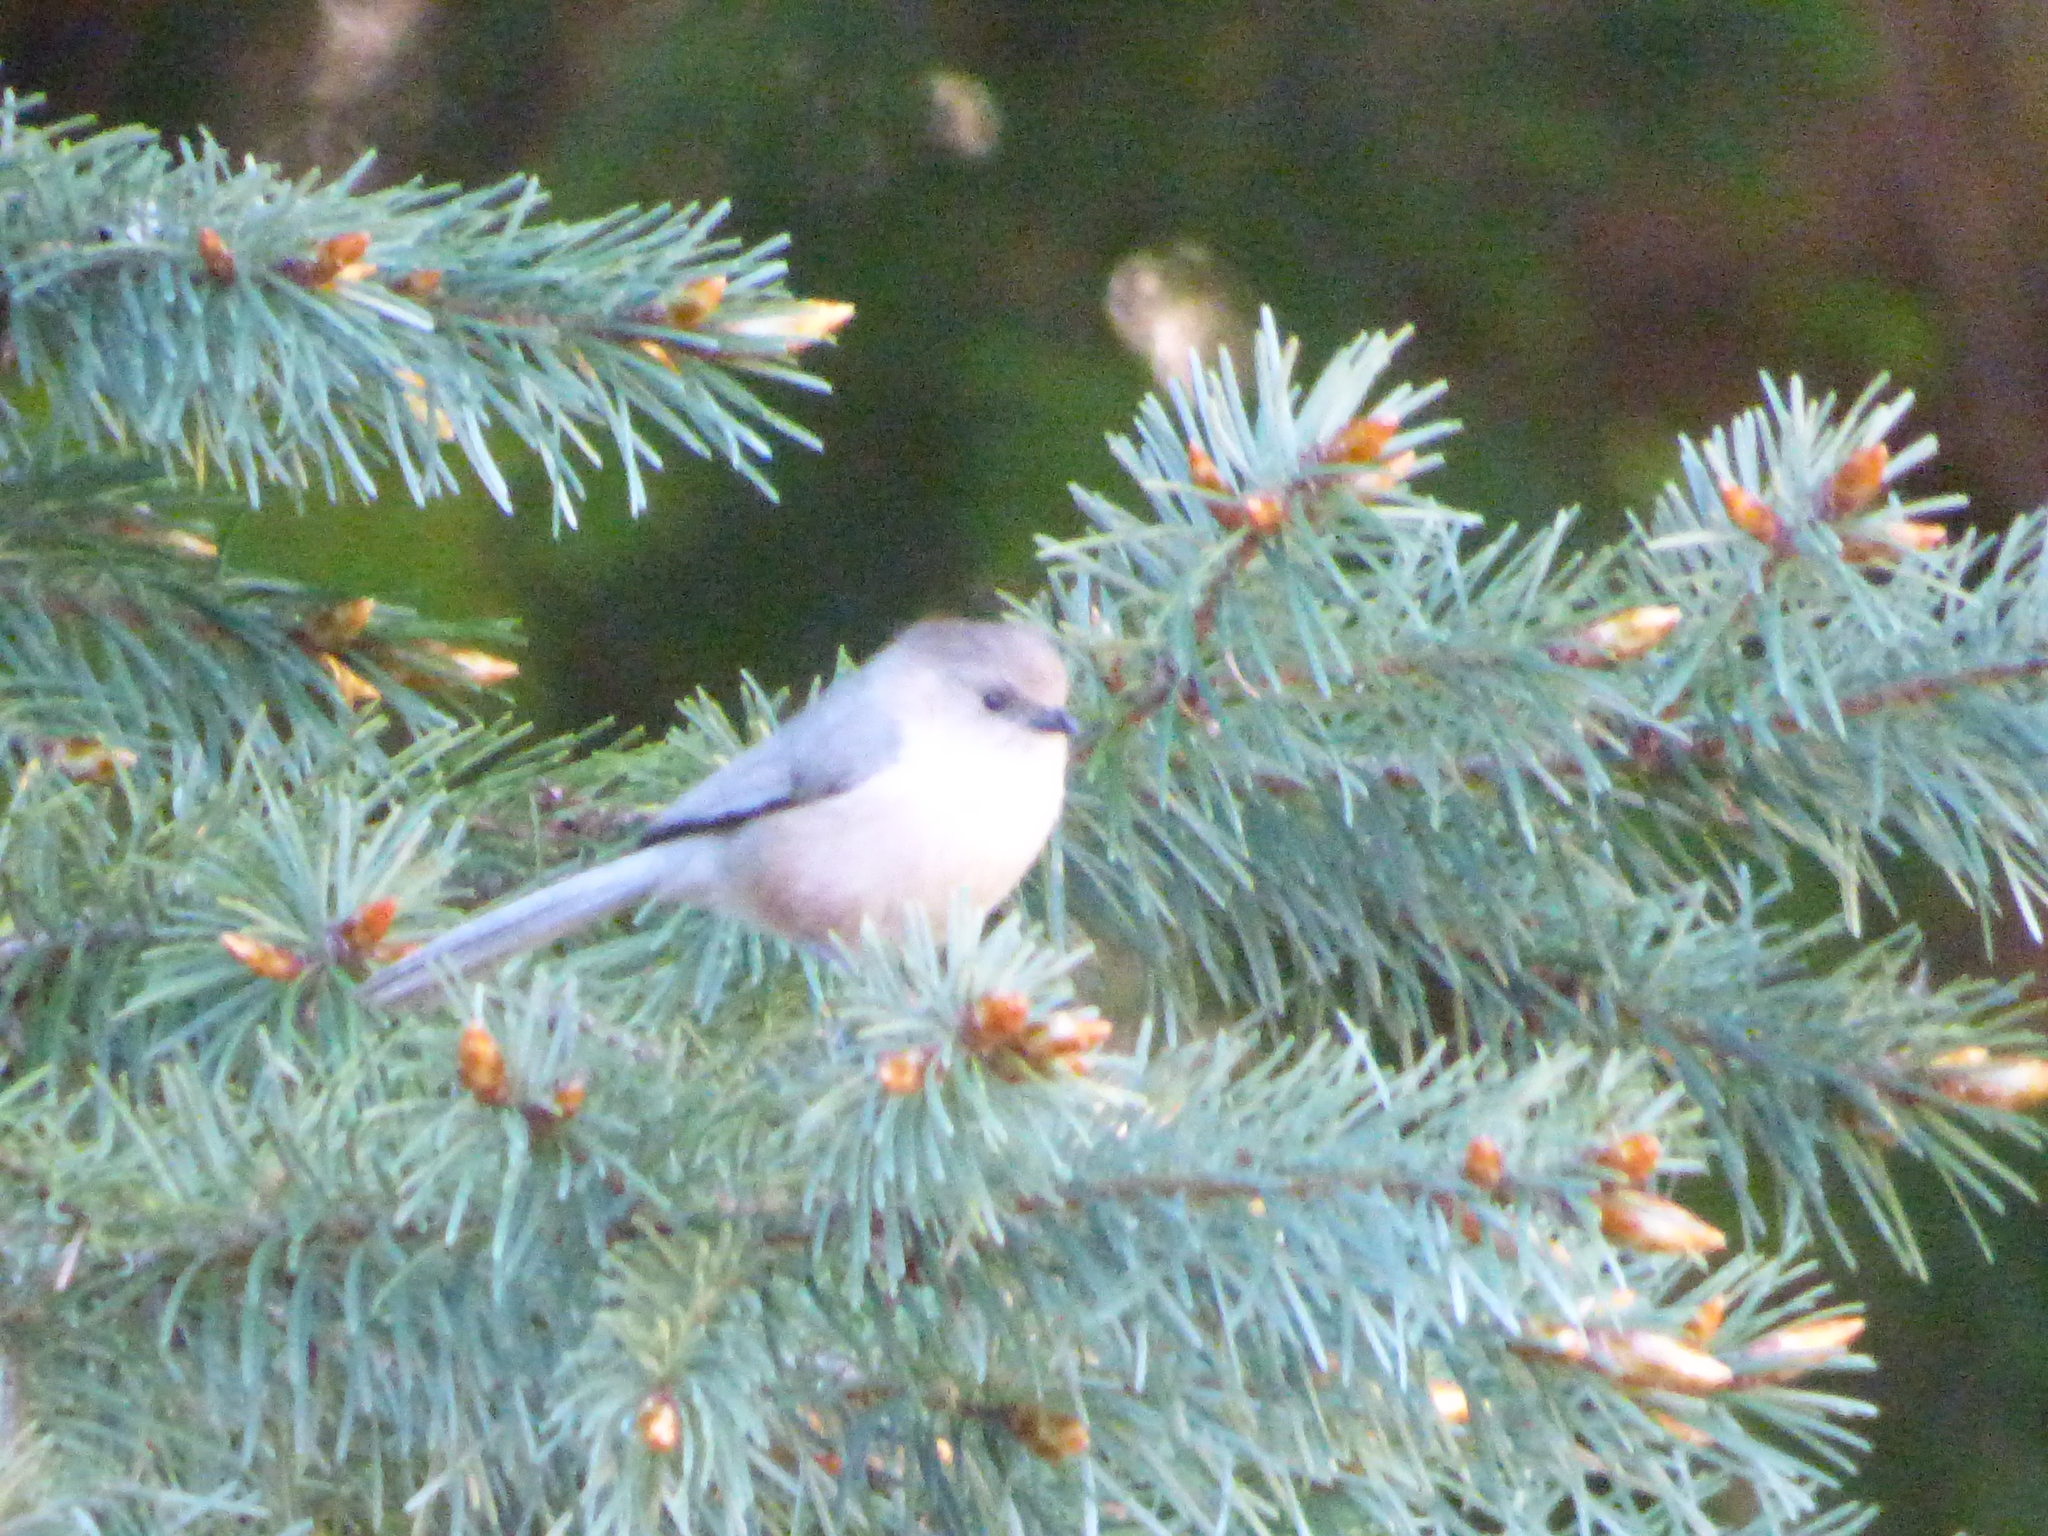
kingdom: Animalia
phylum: Chordata
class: Aves
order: Passeriformes
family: Aegithalidae
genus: Psaltriparus
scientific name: Psaltriparus minimus
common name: American bushtit
